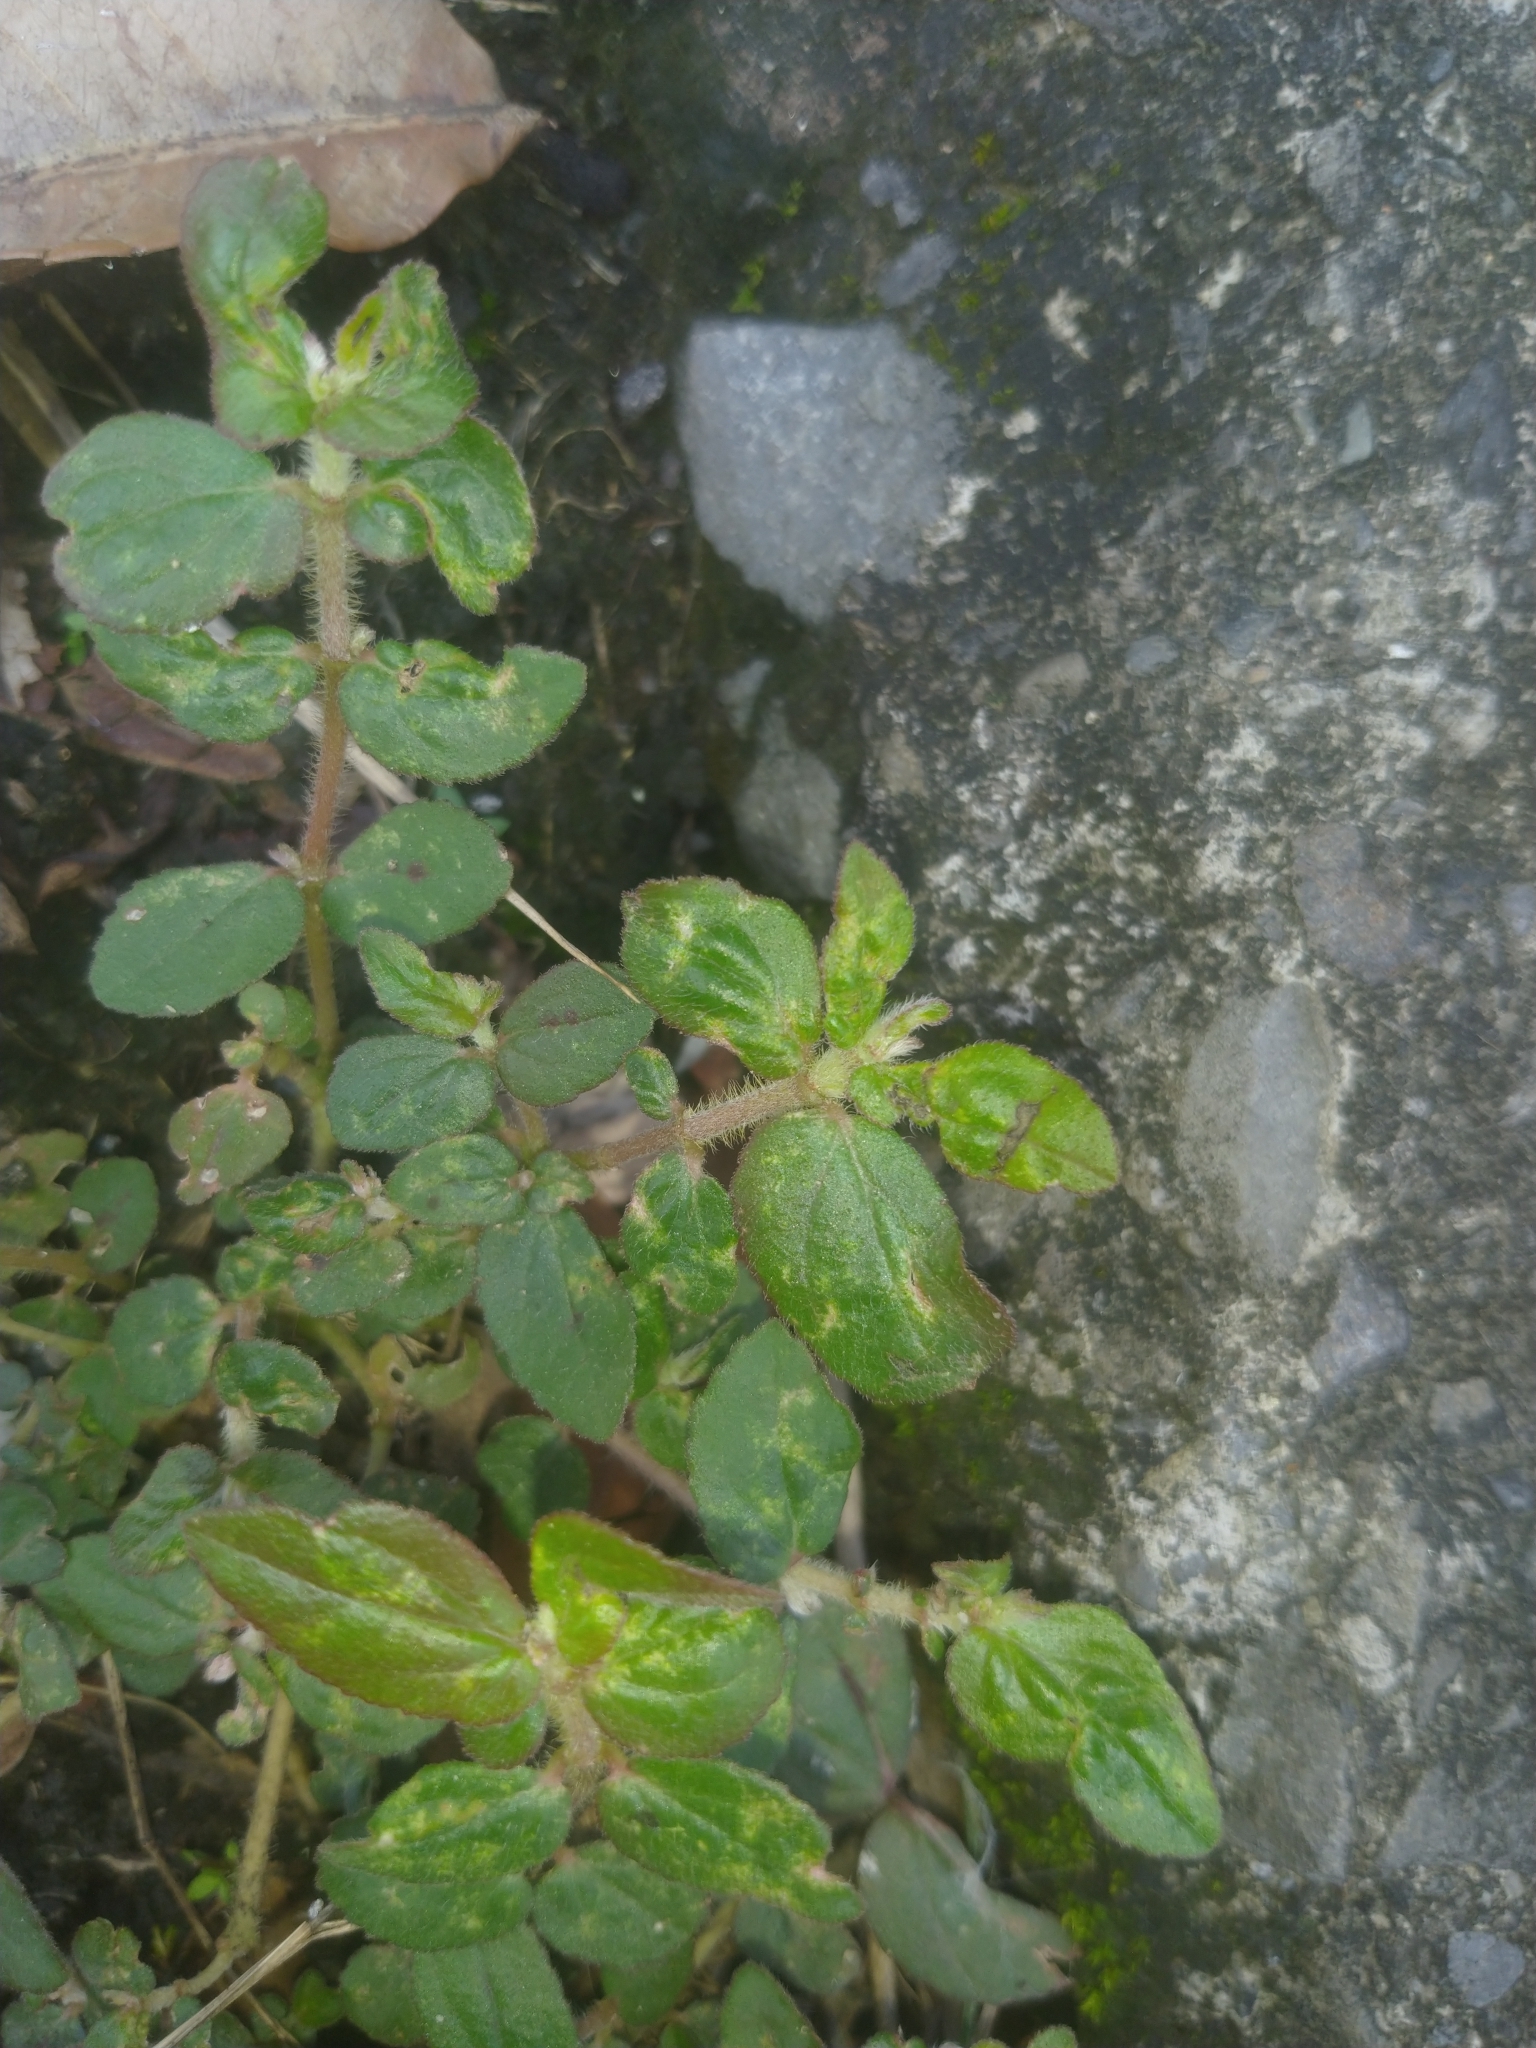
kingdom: Plantae
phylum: Tracheophyta
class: Magnoliopsida
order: Malpighiales
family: Euphorbiaceae
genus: Euphorbia
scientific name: Euphorbia hirta
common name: Pillpod sandmat
